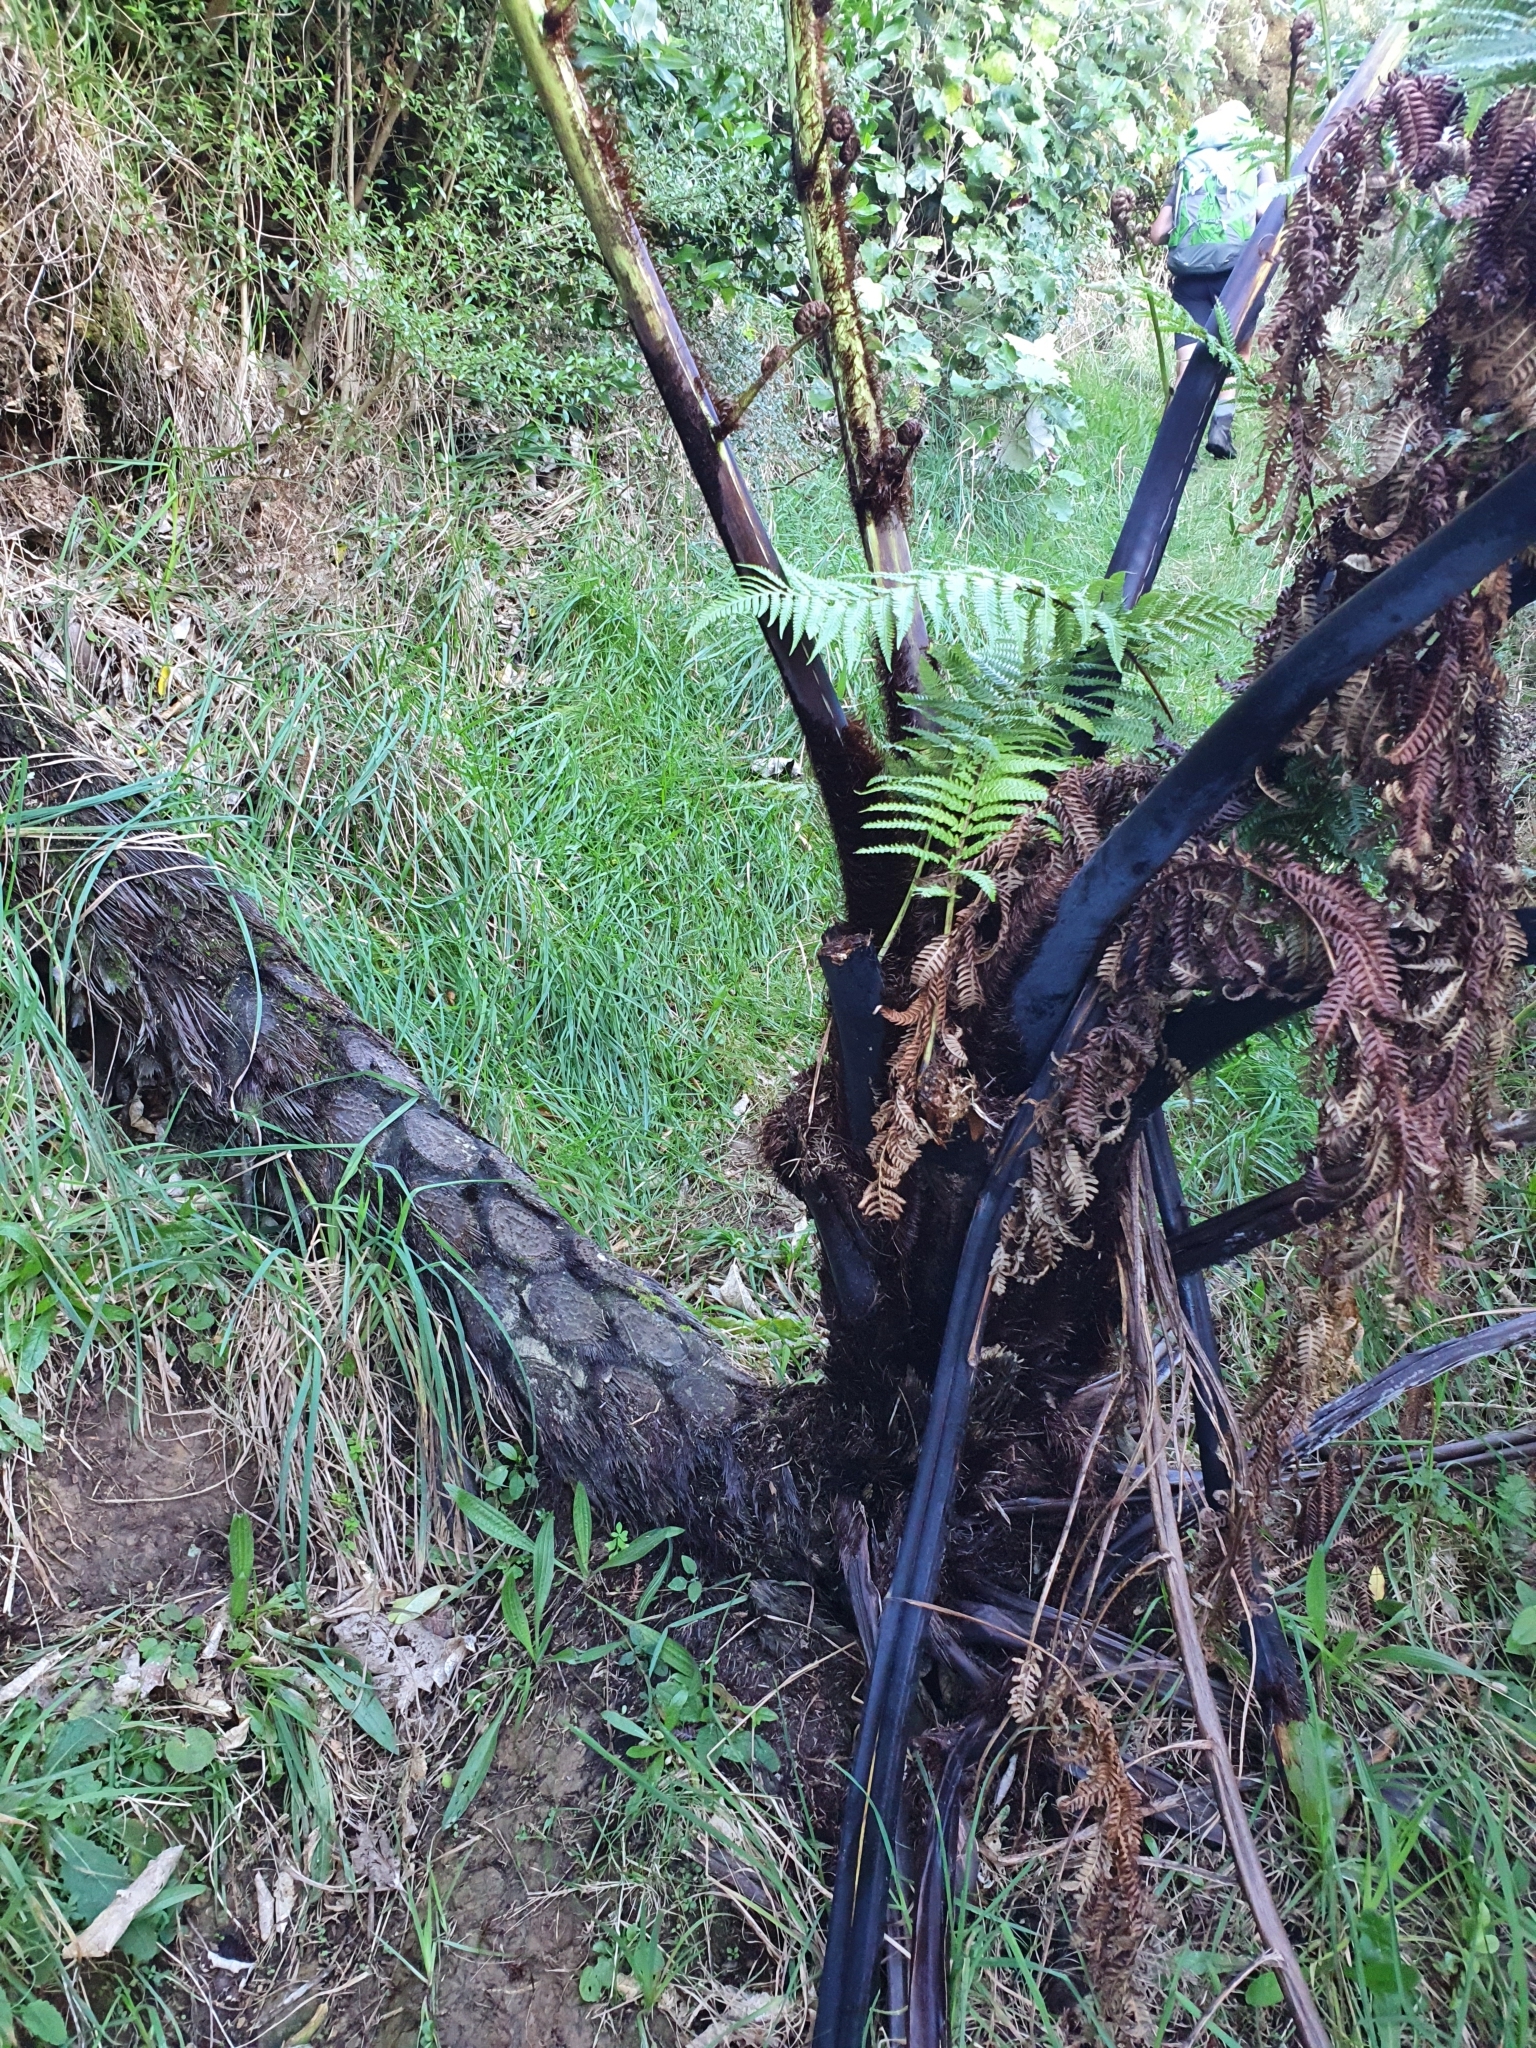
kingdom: Plantae
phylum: Tracheophyta
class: Polypodiopsida
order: Cyatheales
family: Cyatheaceae
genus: Sphaeropteris
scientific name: Sphaeropteris medullaris
